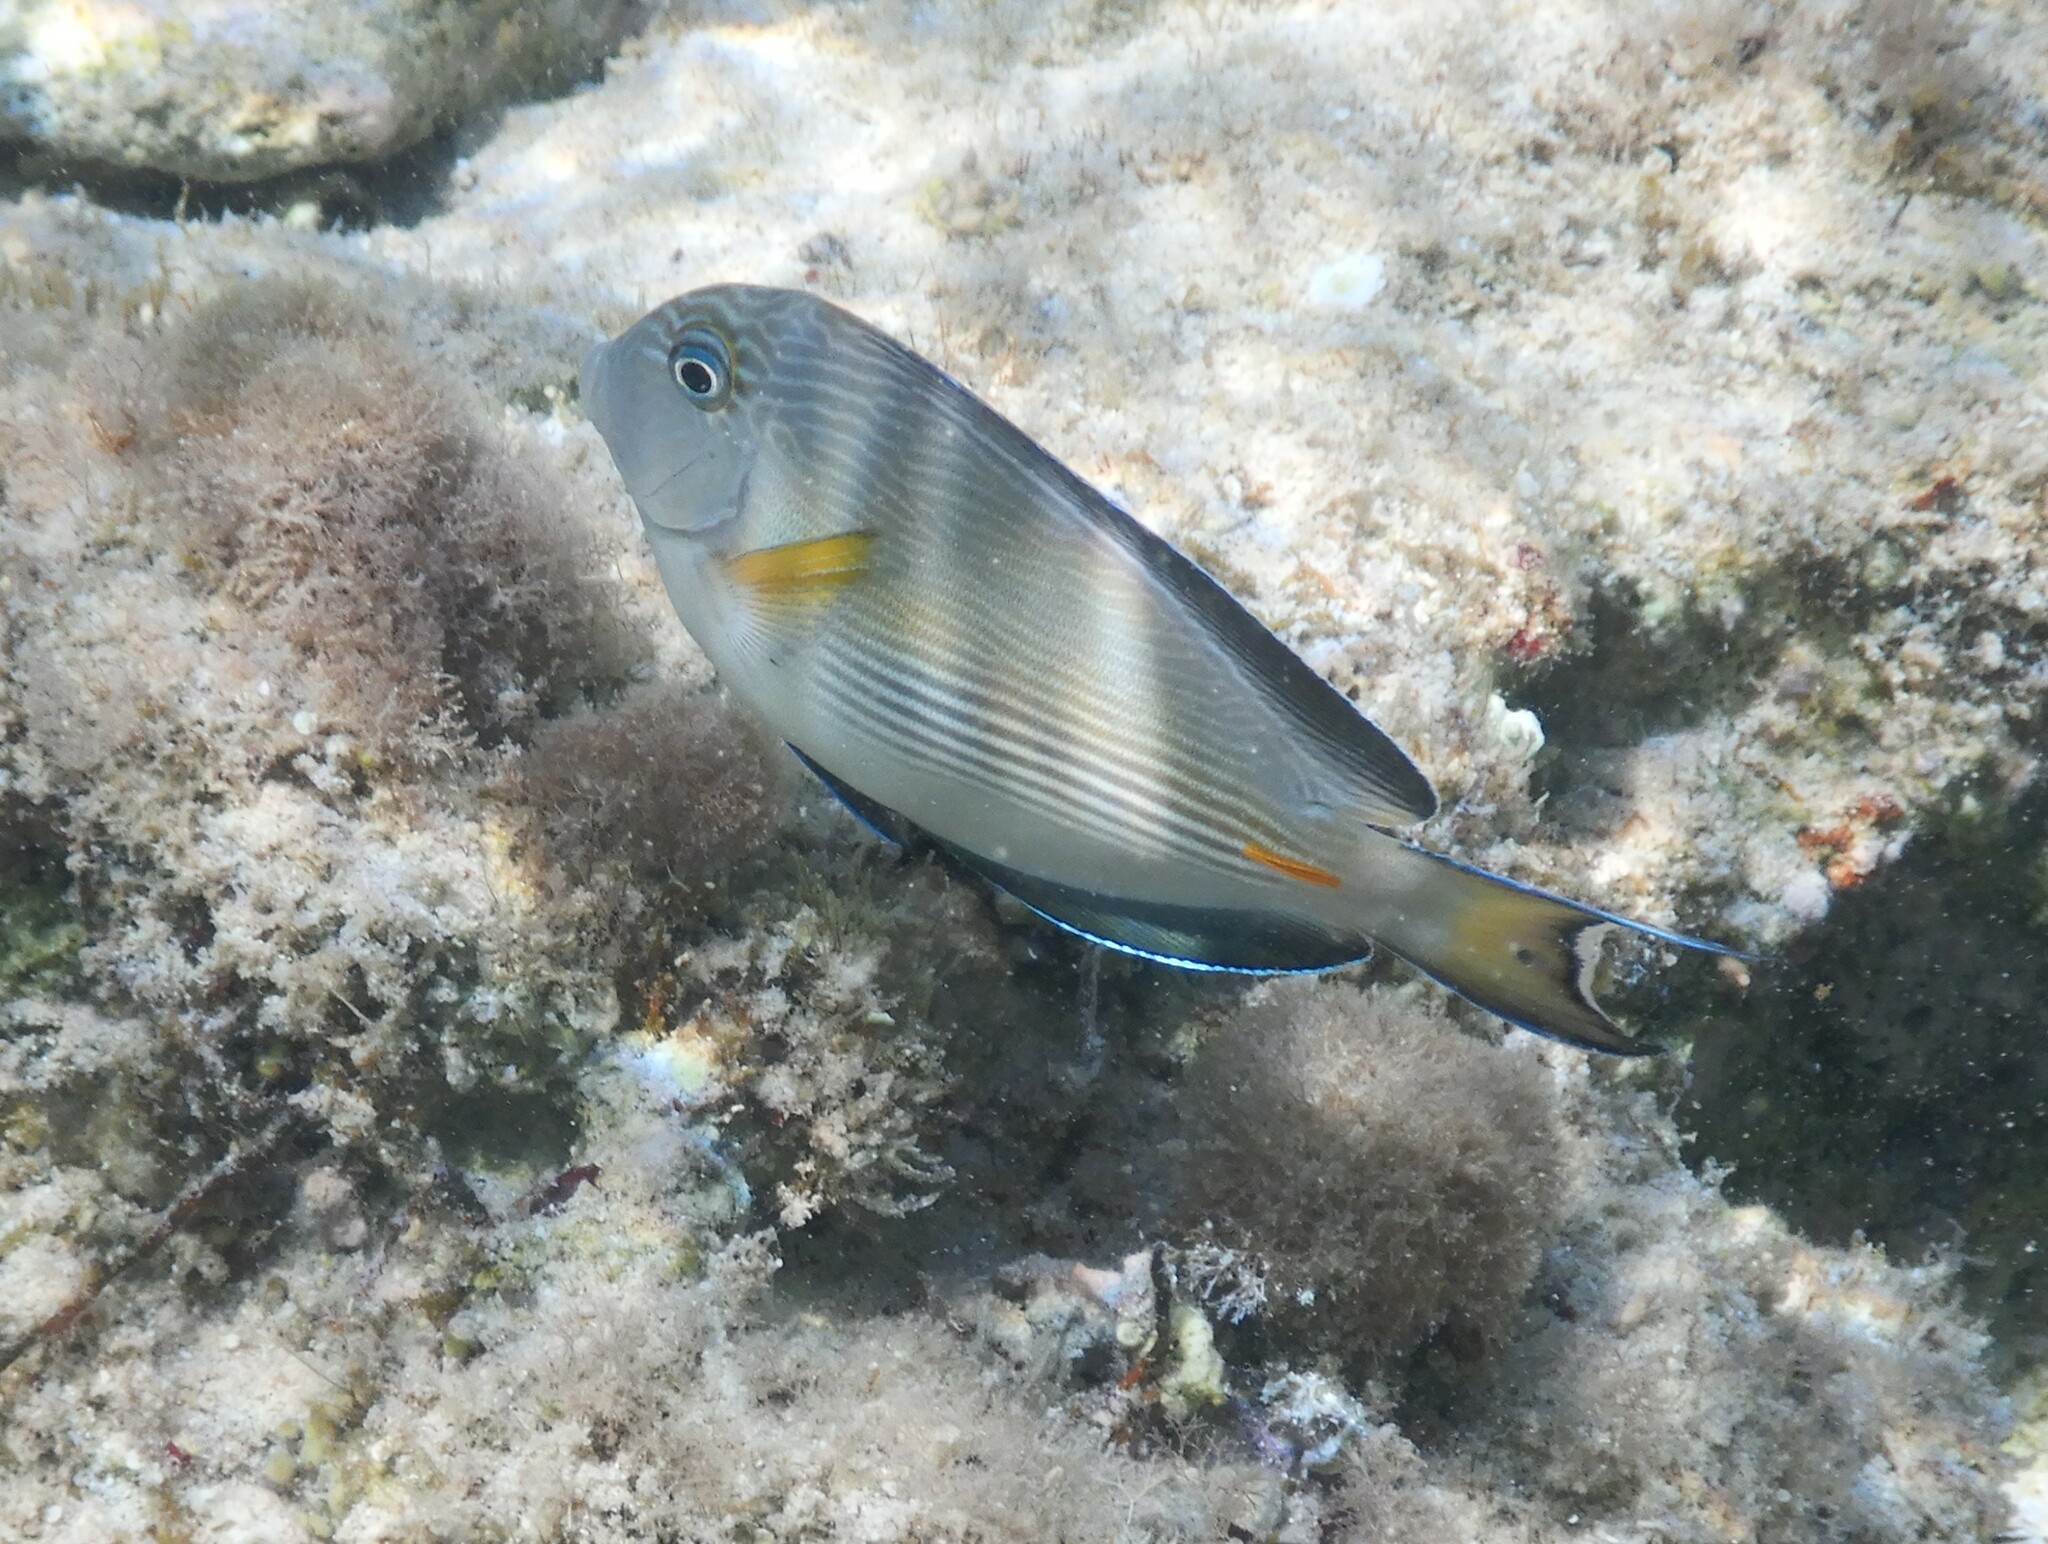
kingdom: Animalia
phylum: Chordata
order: Perciformes
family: Acanthuridae
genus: Acanthurus
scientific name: Acanthurus sohal
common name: Red sea surgeonfish
